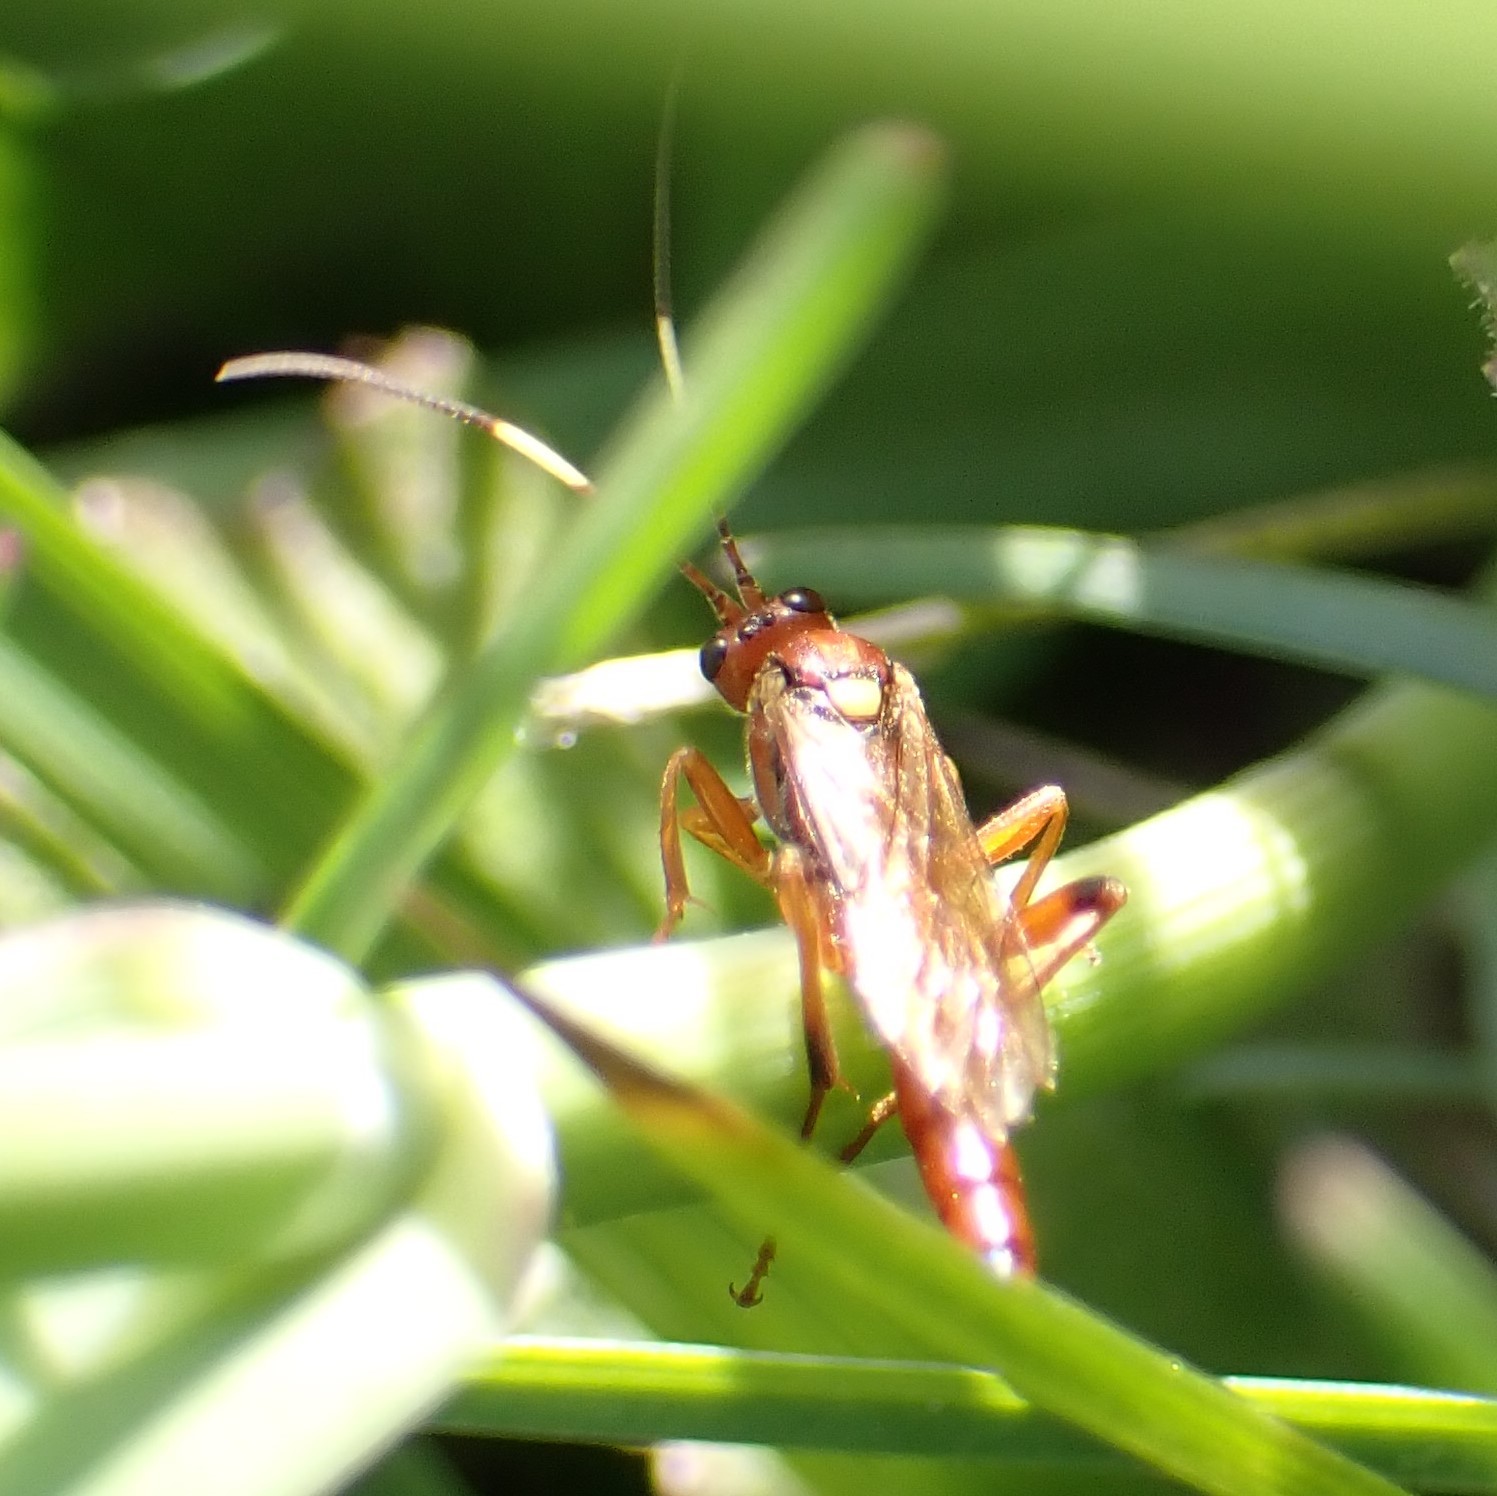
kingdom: Animalia
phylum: Arthropoda
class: Insecta
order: Hymenoptera
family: Ichneumonidae
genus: Ectopimorpha
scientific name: Ectopimorpha wilsoni
